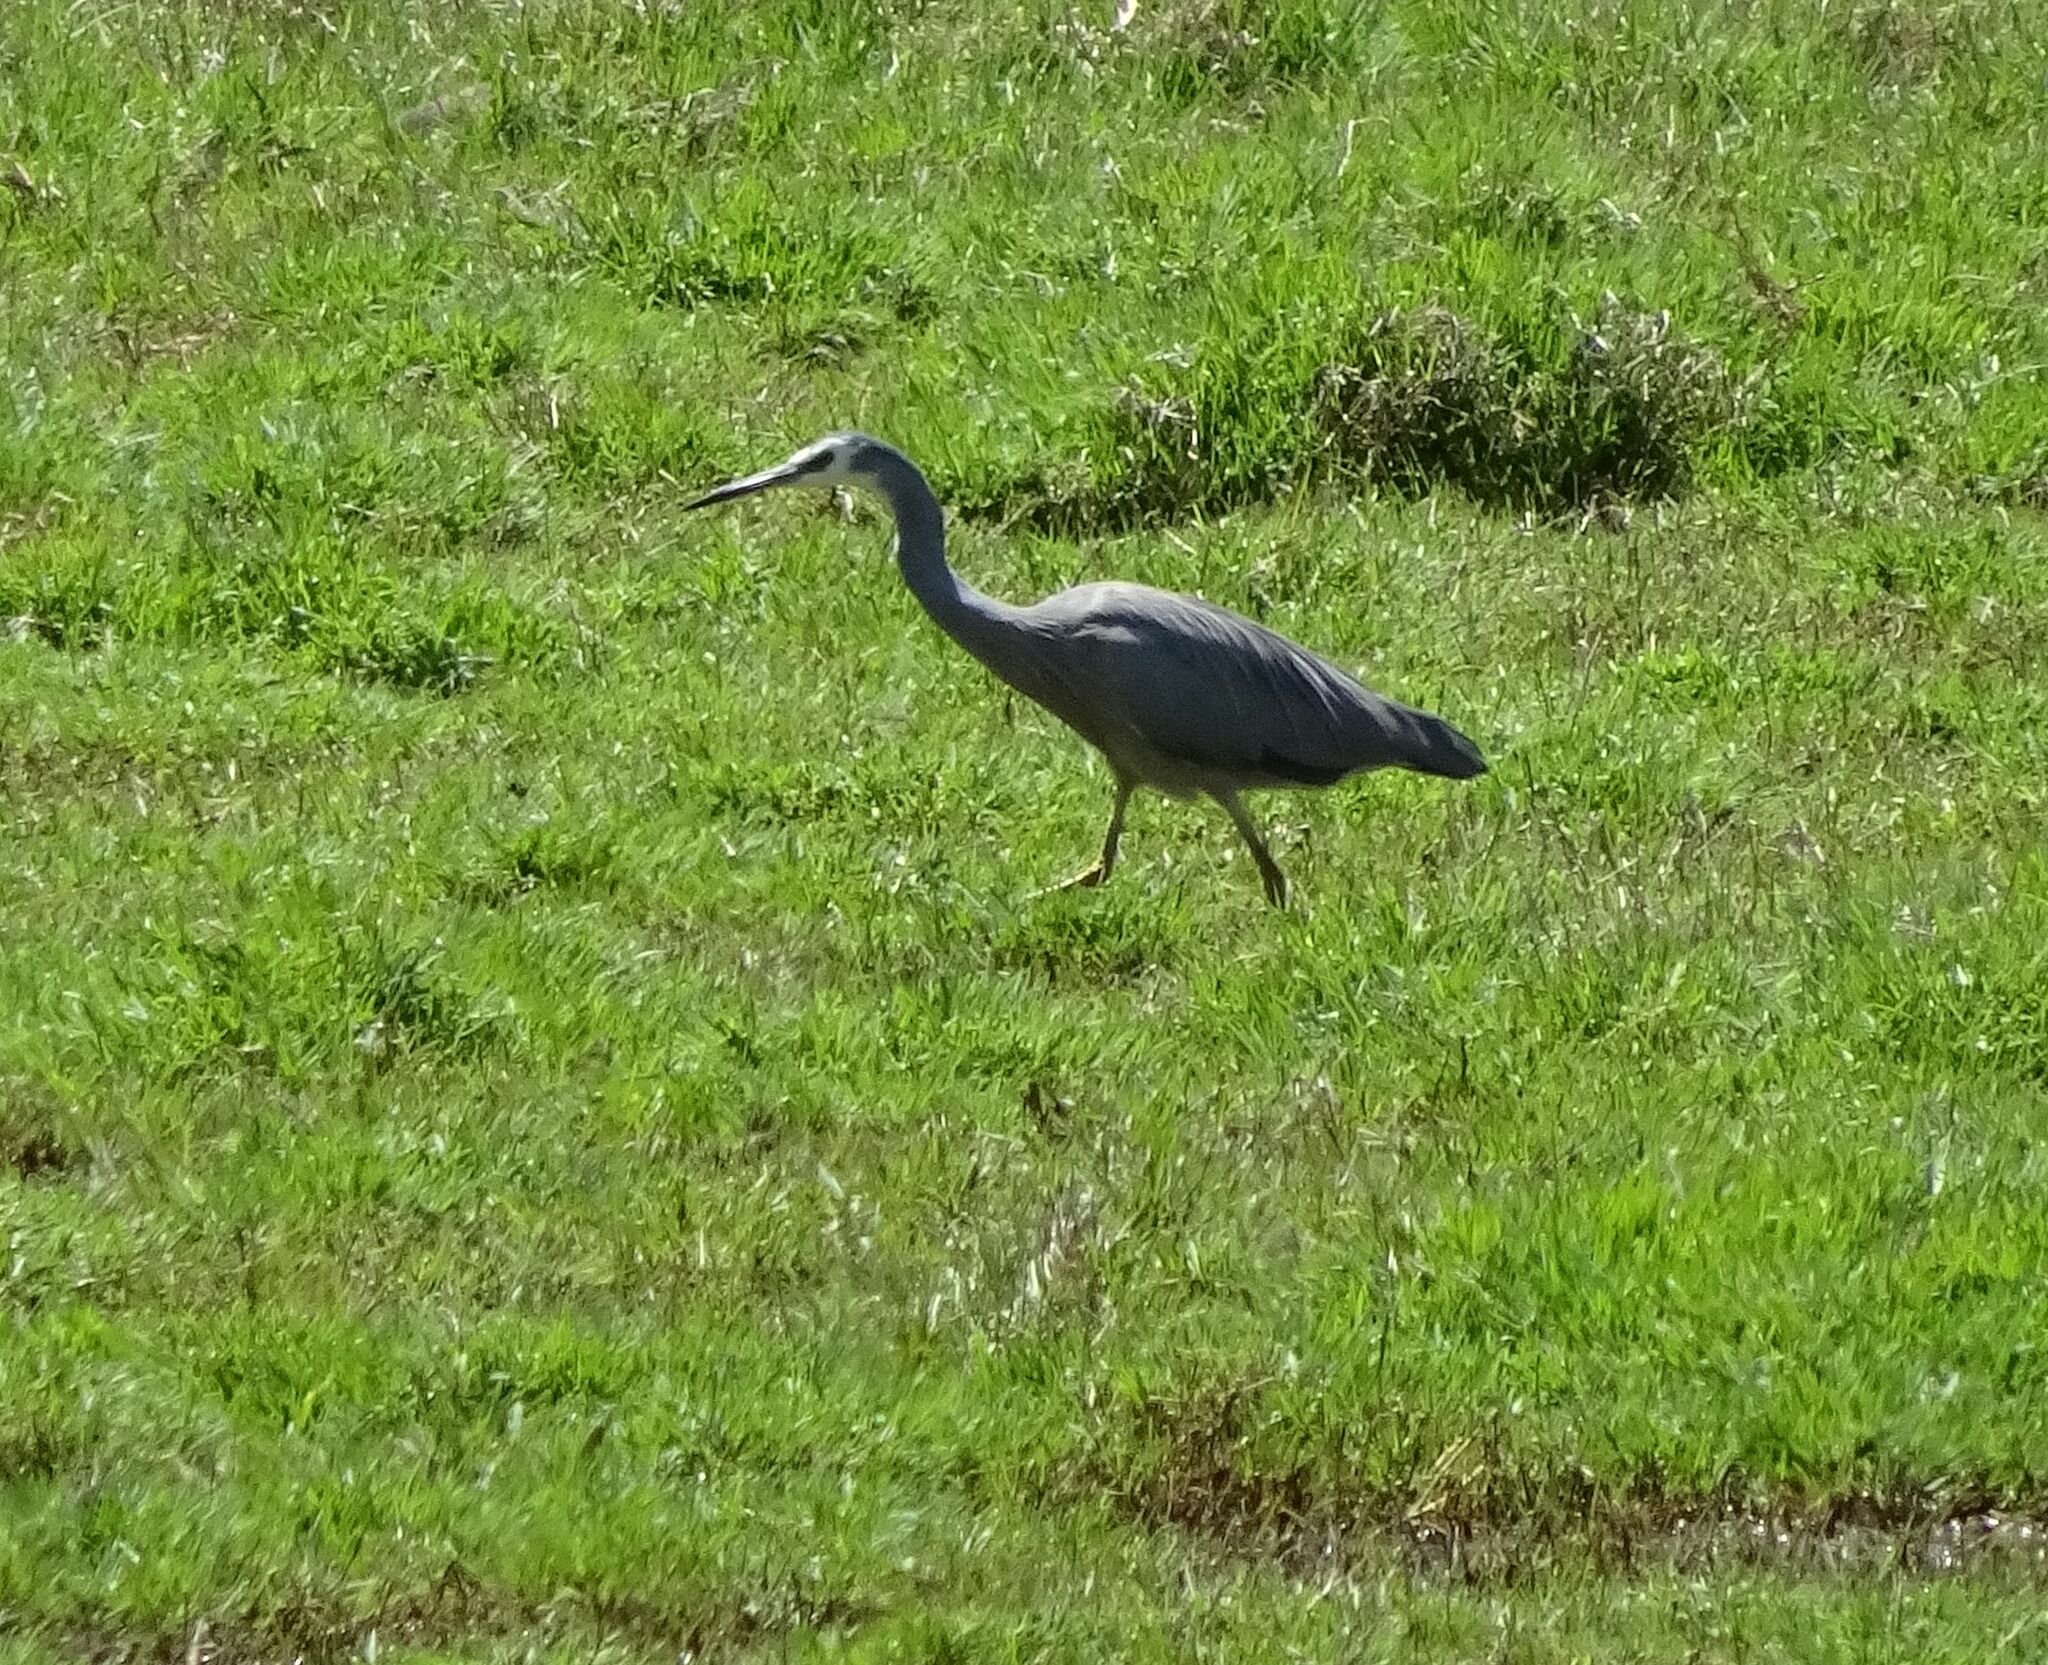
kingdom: Animalia
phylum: Chordata
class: Aves
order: Pelecaniformes
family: Ardeidae
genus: Egretta
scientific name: Egretta novaehollandiae
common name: White-faced heron
